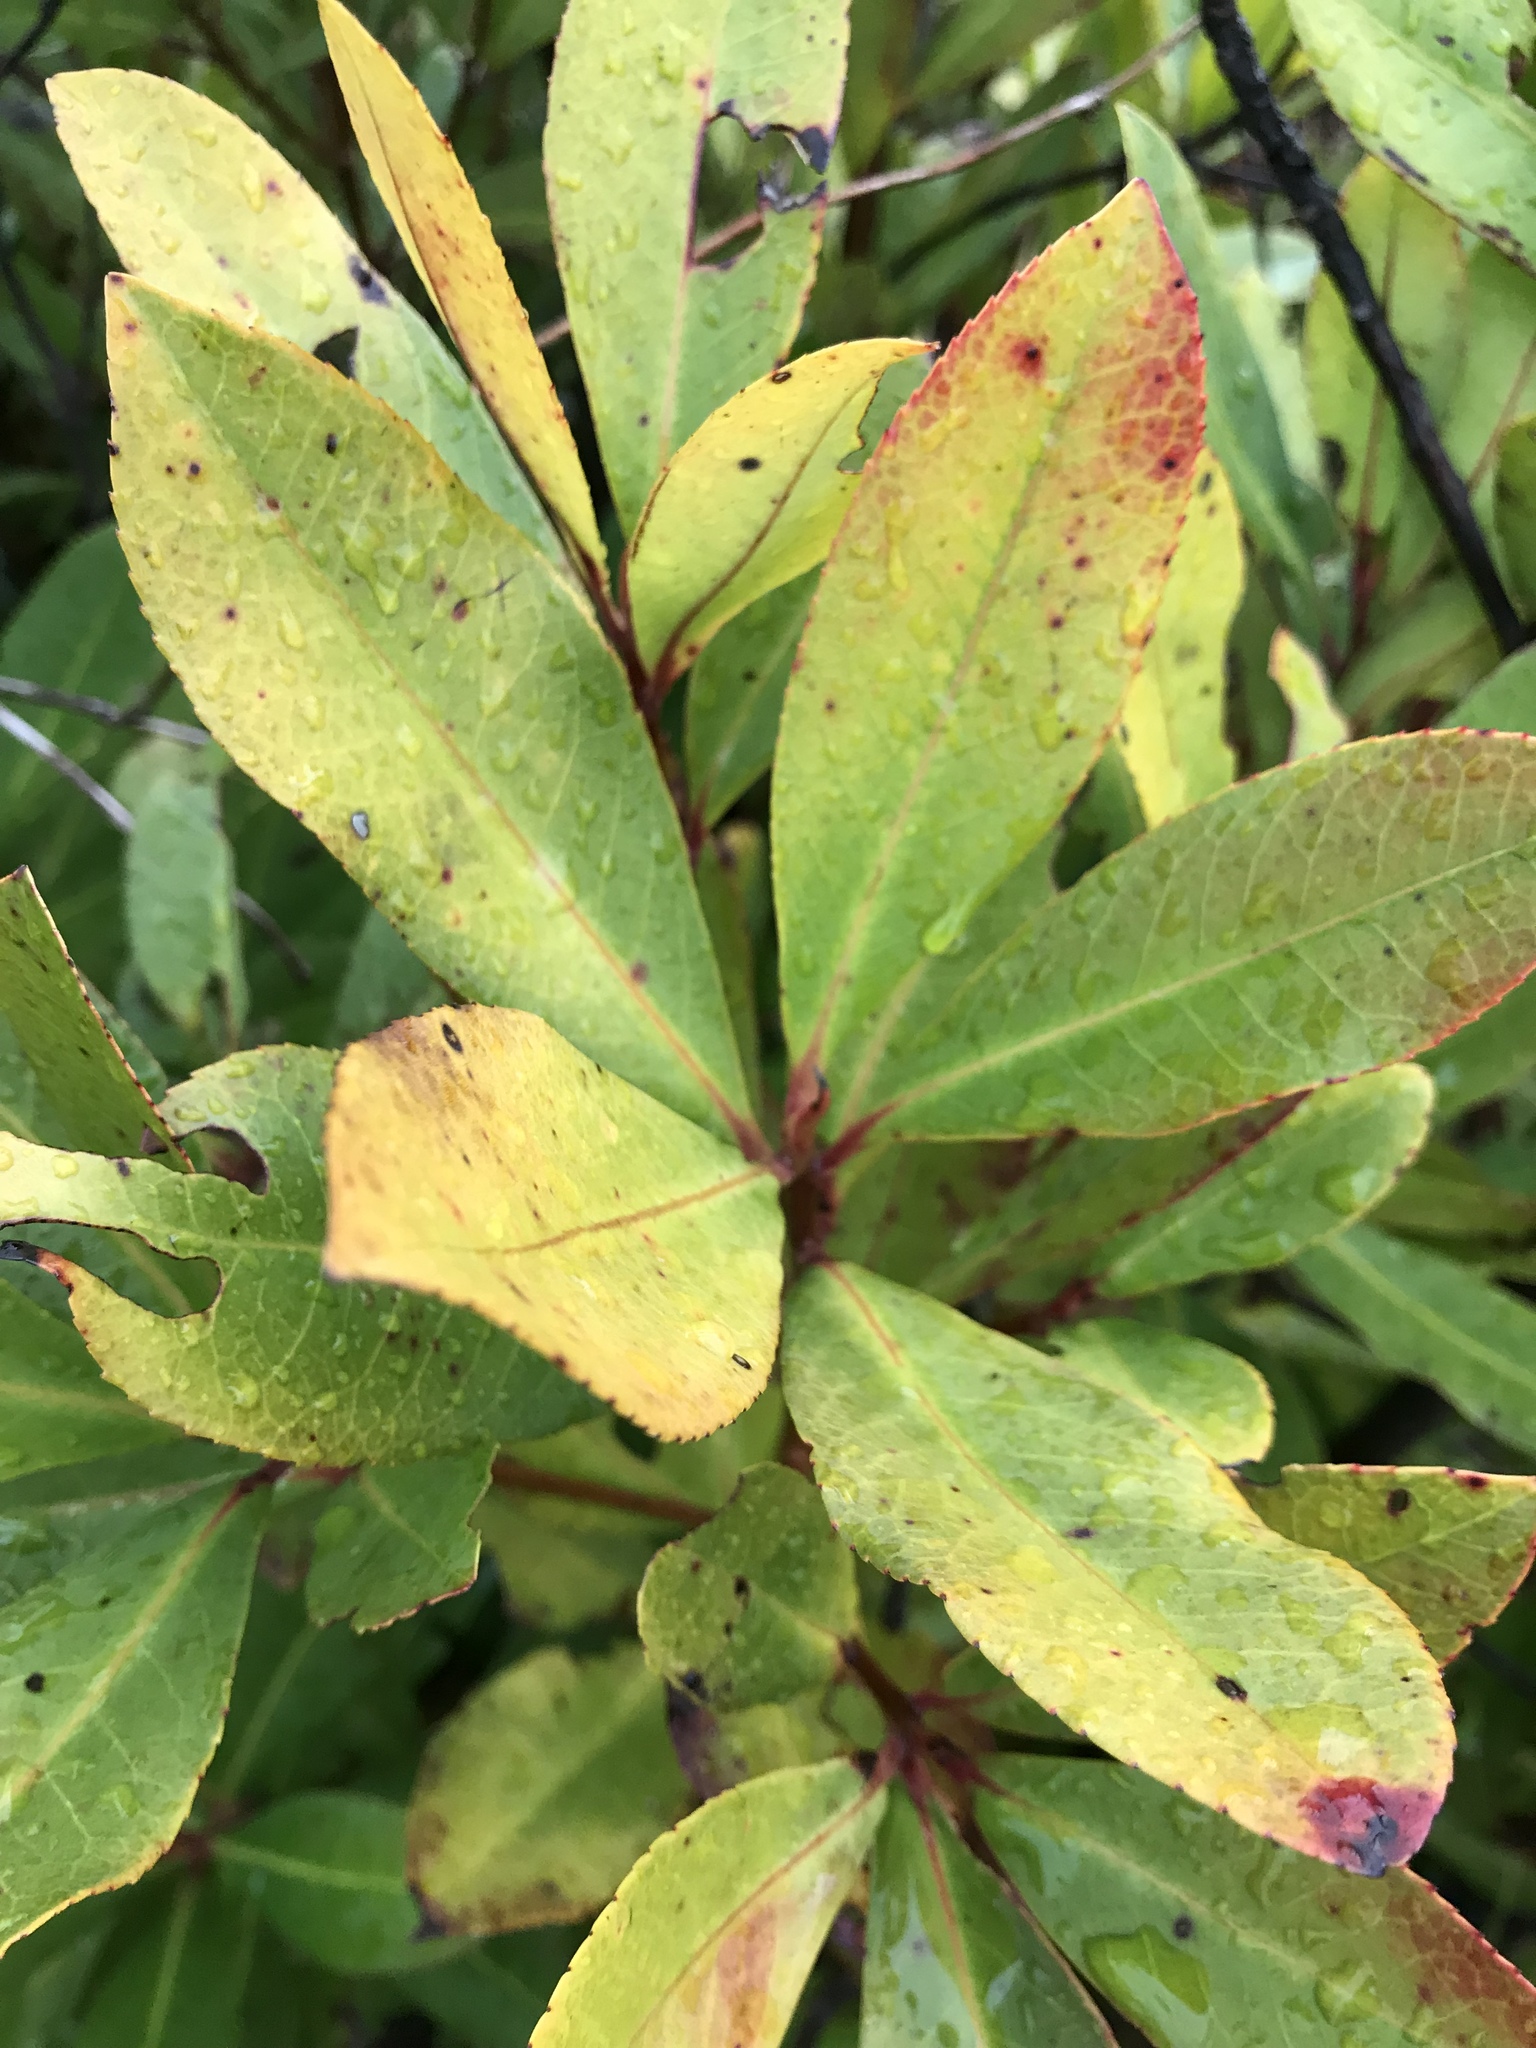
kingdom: Plantae
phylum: Tracheophyta
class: Magnoliopsida
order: Ericales
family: Theaceae
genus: Gordonia
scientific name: Gordonia lasianthus
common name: Loblolly bay
